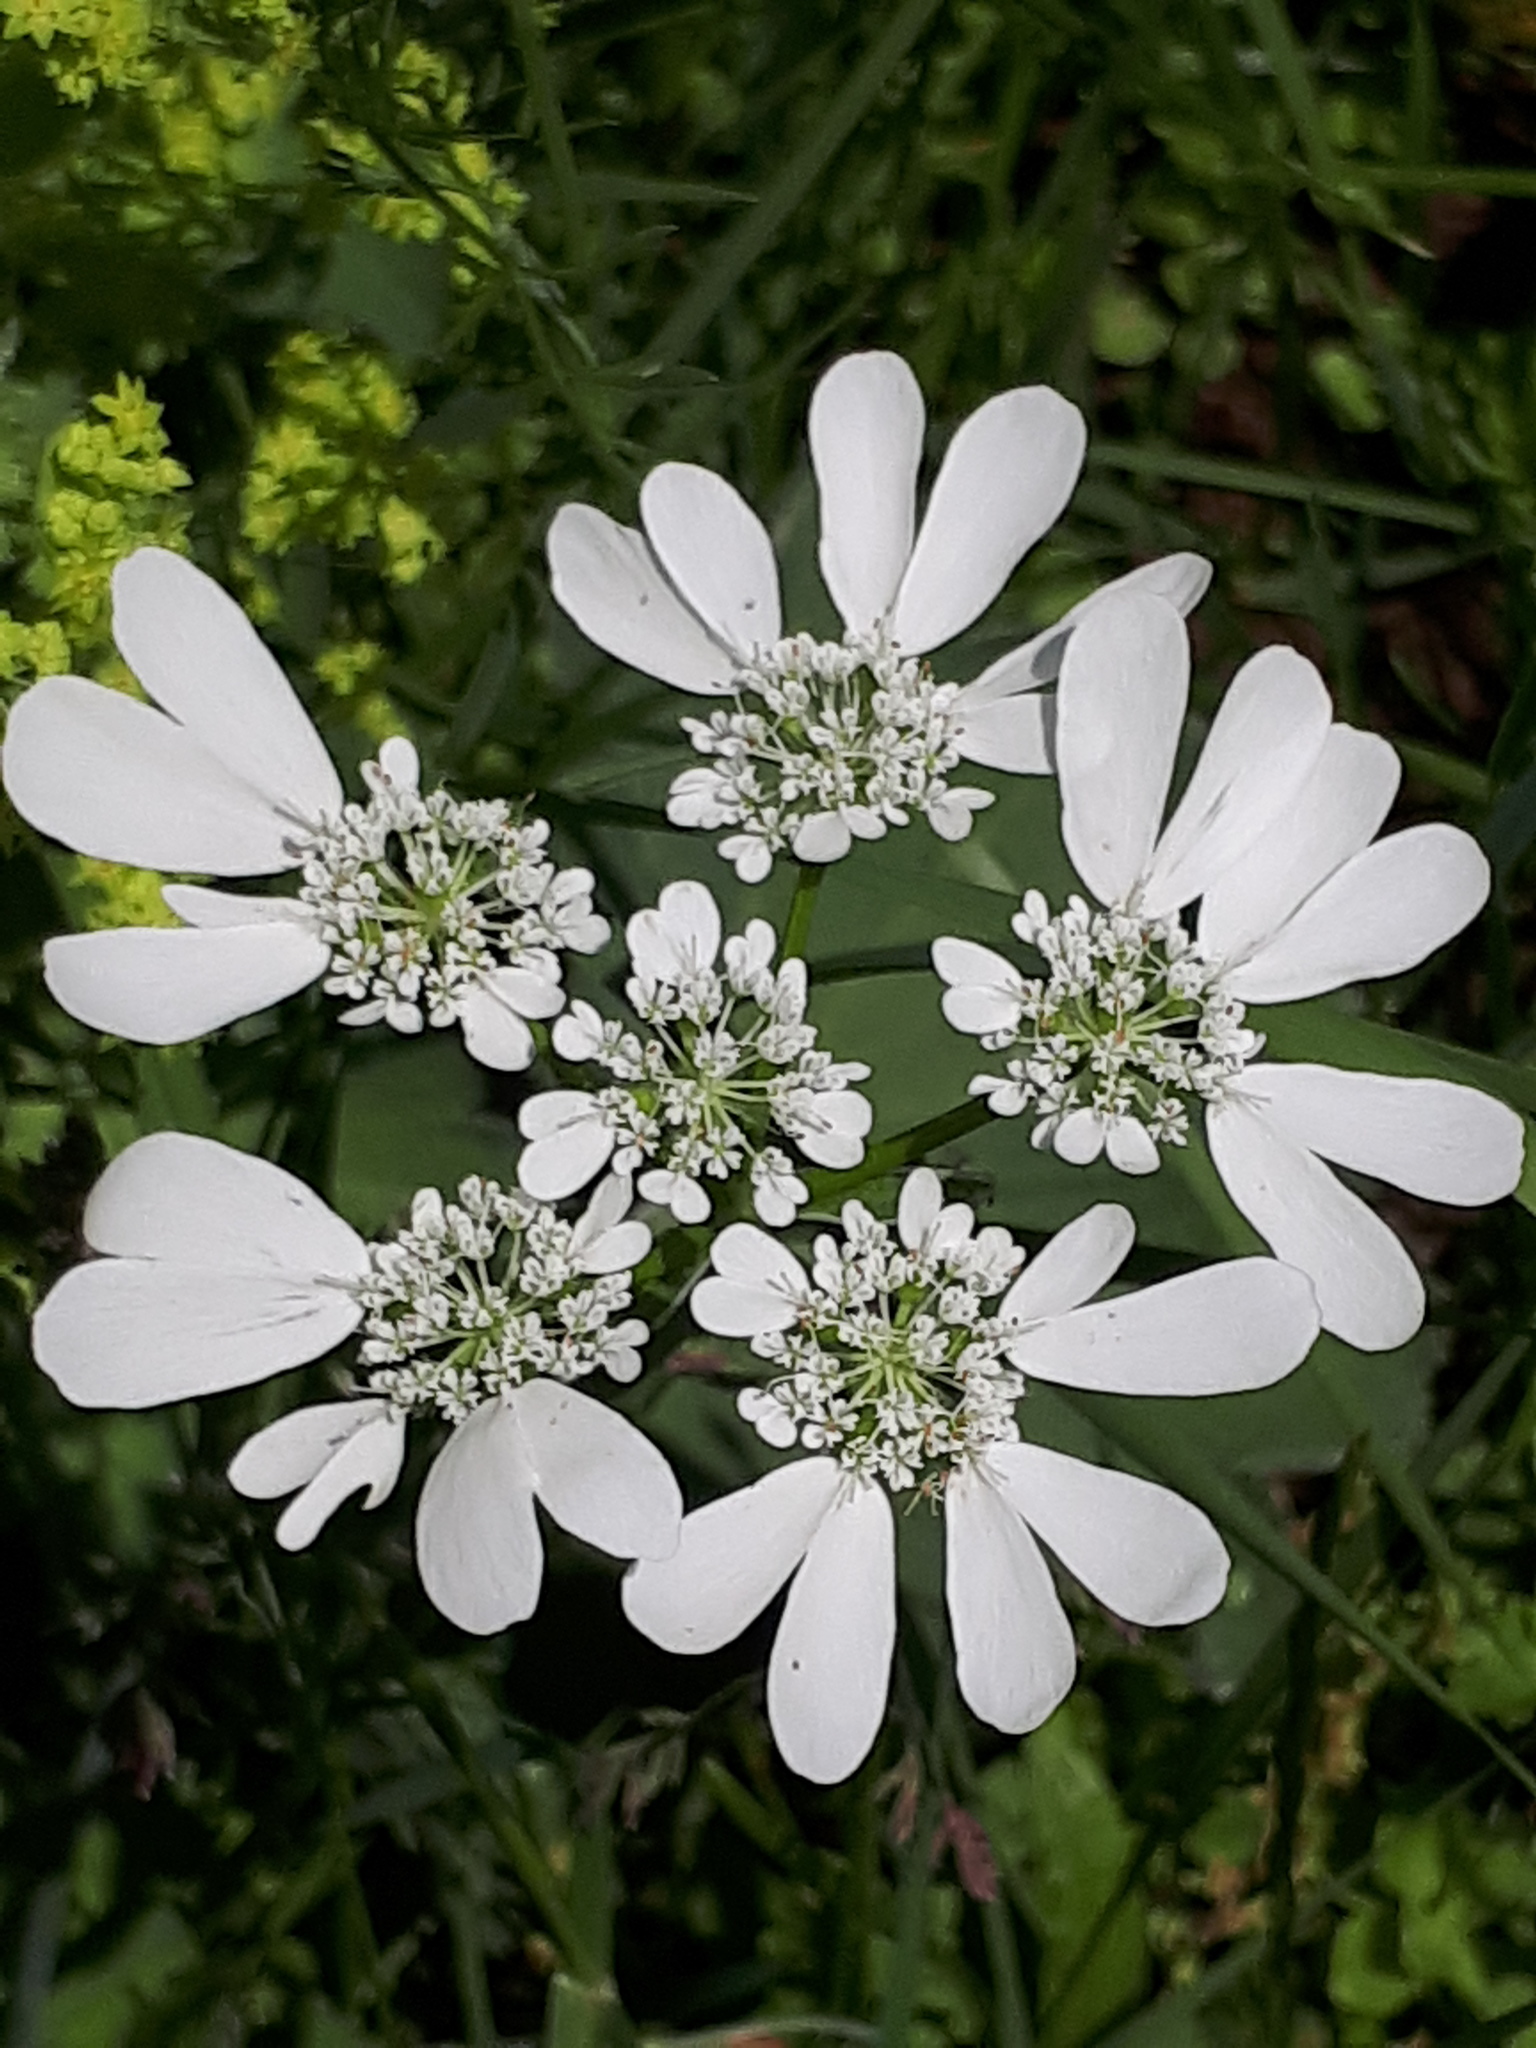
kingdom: Plantae
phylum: Tracheophyta
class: Magnoliopsida
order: Apiales
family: Apiaceae
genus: Orlaya
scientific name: Orlaya grandiflora
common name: White lace flower
